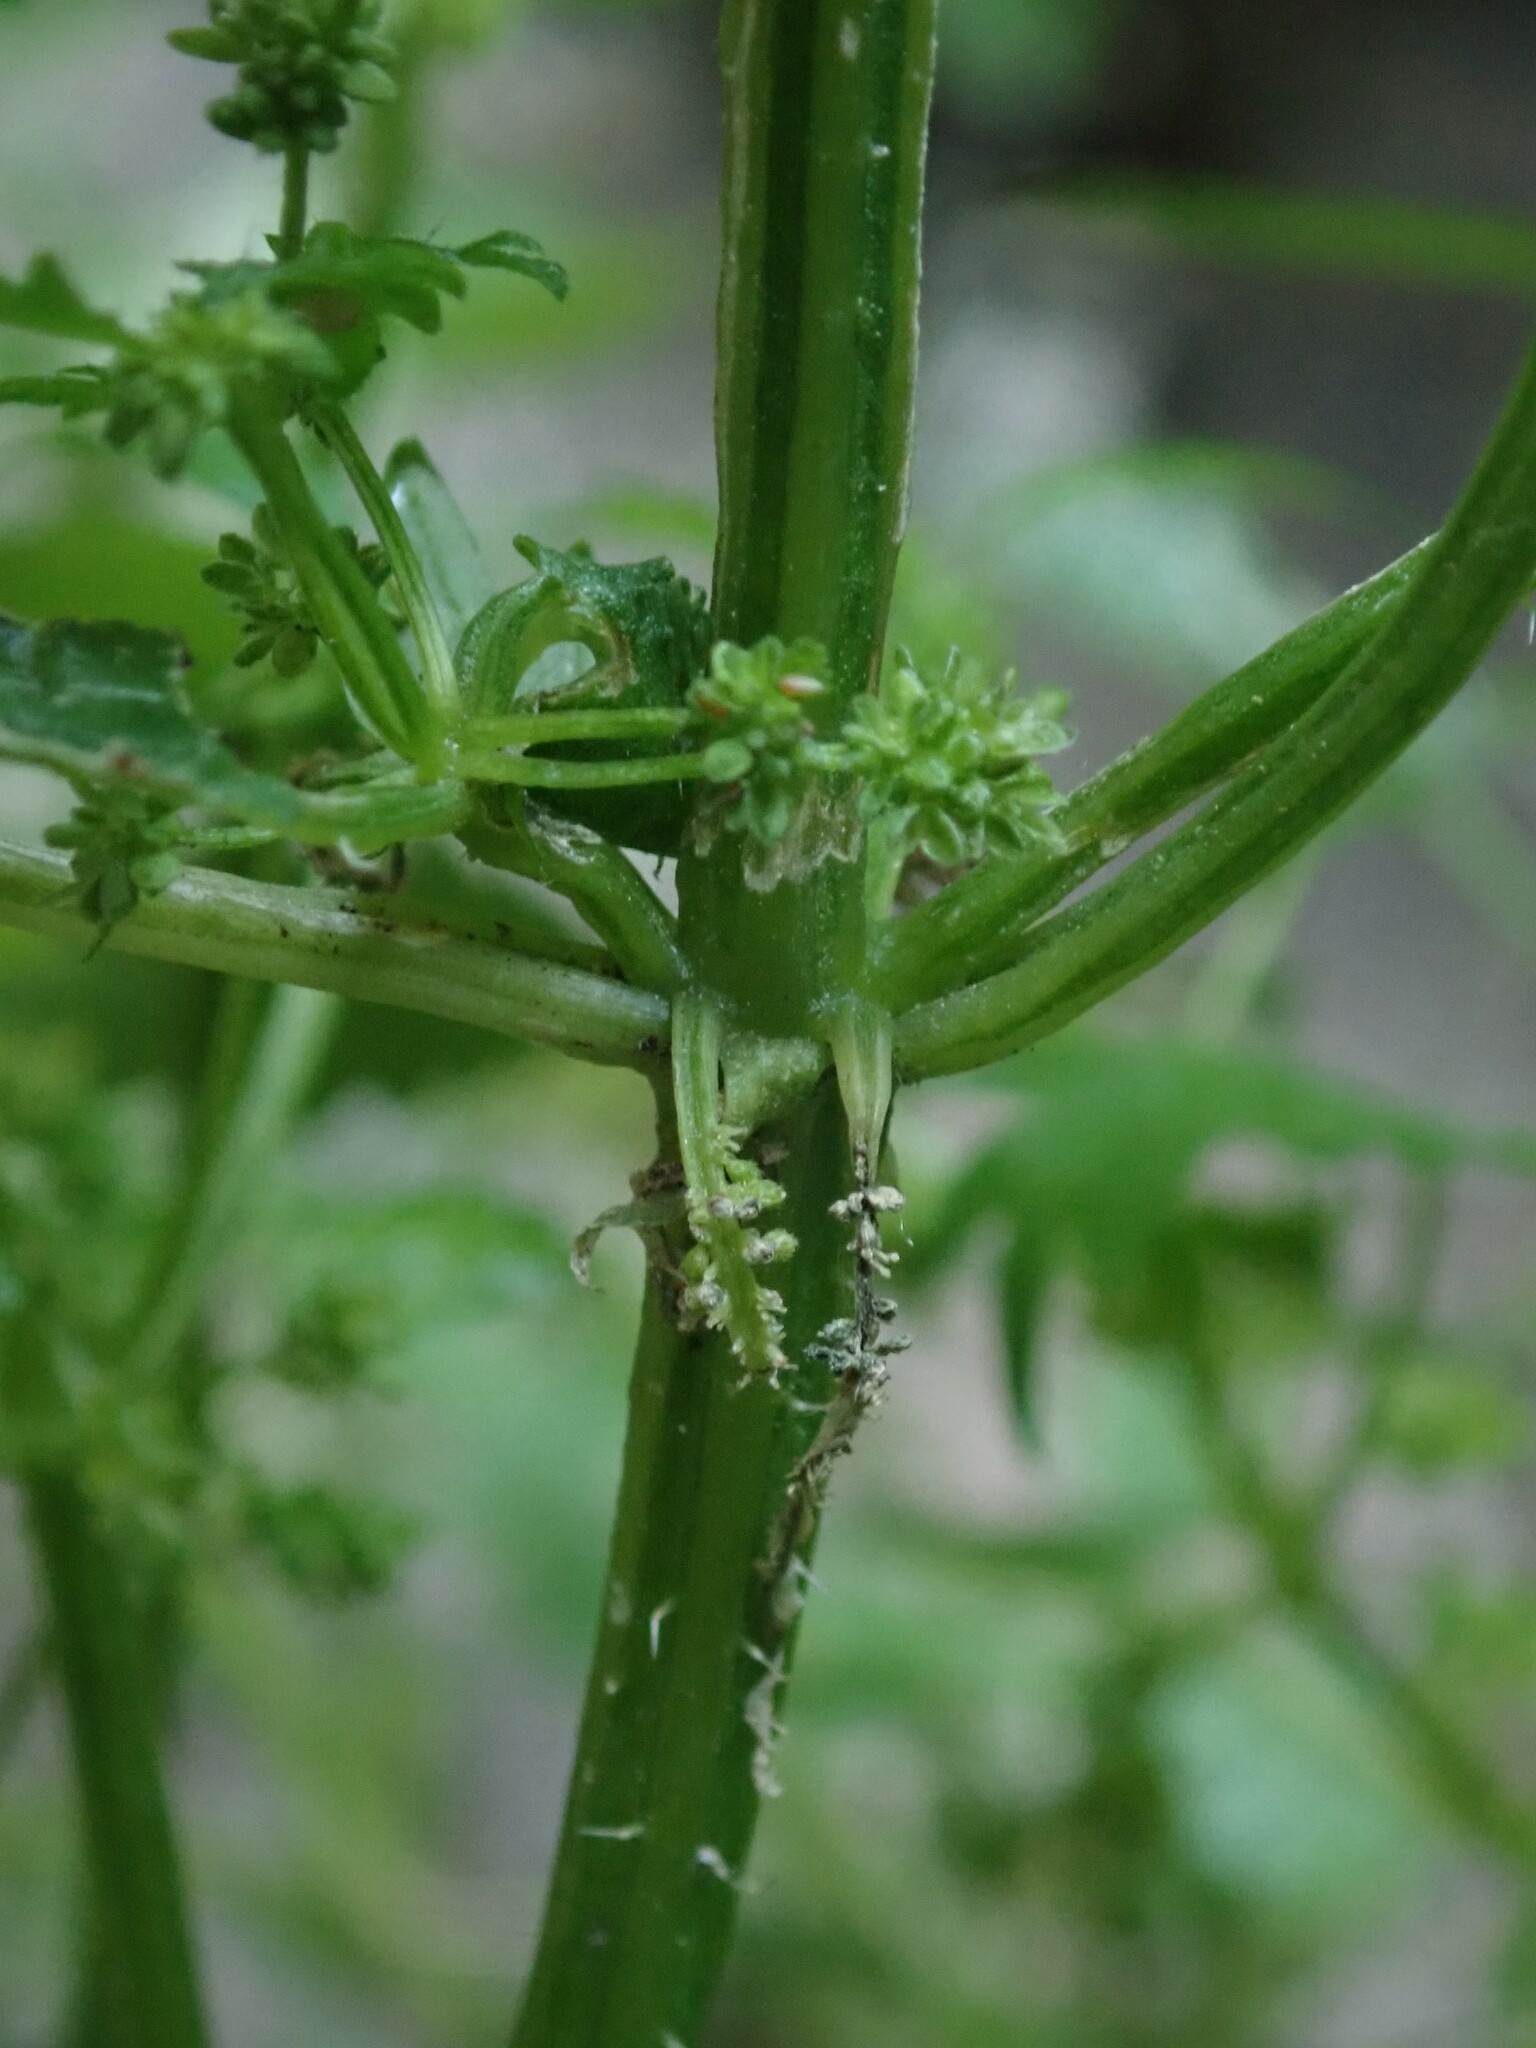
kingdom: Plantae
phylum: Tracheophyta
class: Magnoliopsida
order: Rosales
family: Urticaceae
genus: Urtica
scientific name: Urtica membranacea
